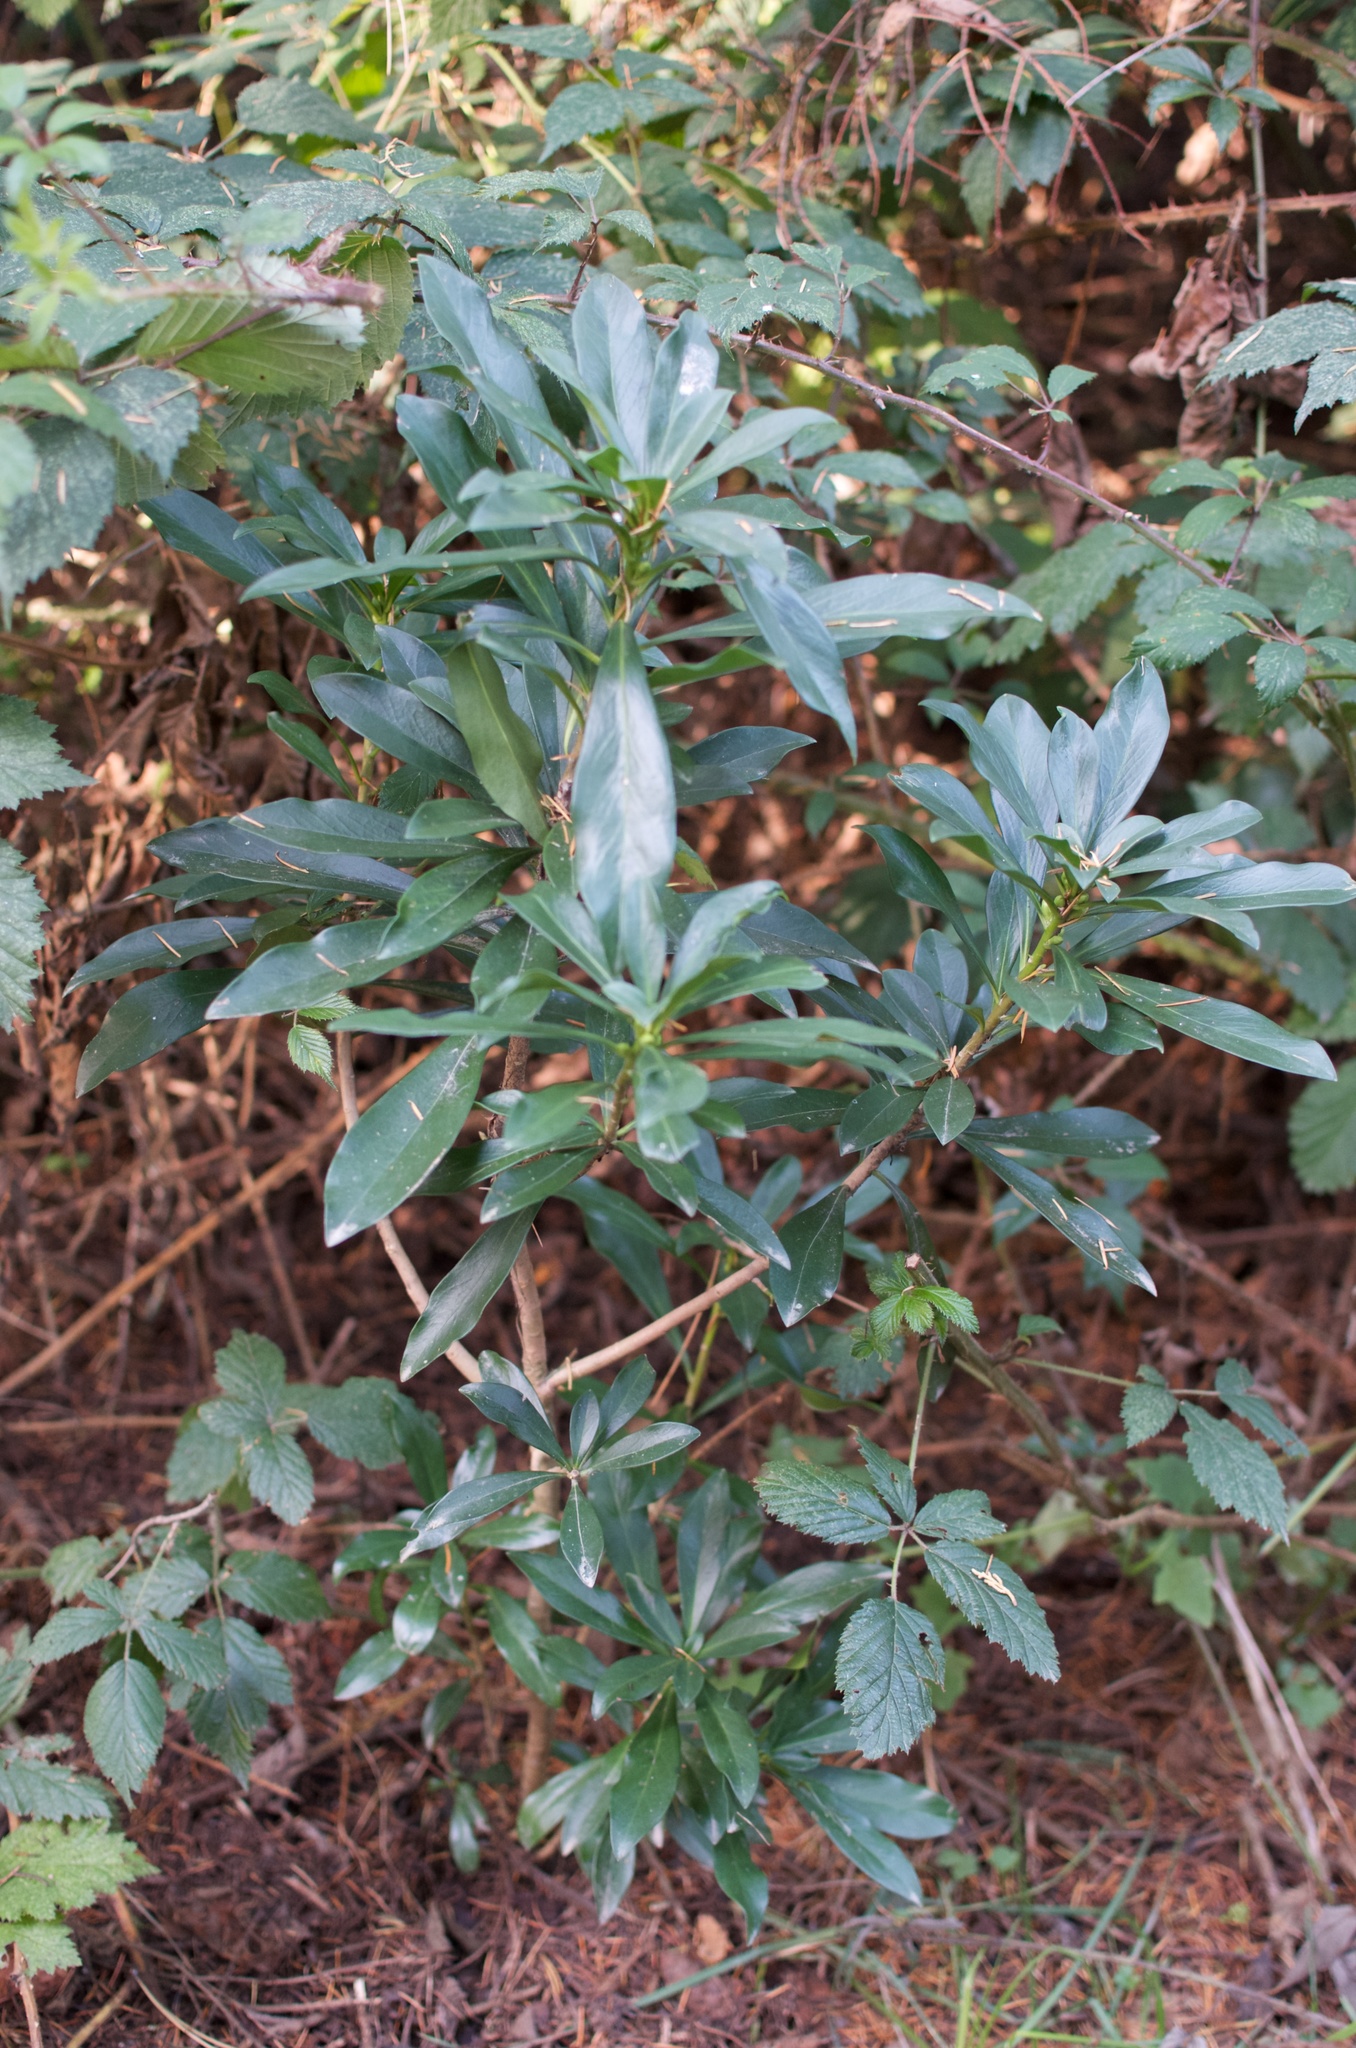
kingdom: Plantae
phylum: Tracheophyta
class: Magnoliopsida
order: Malvales
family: Thymelaeaceae
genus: Daphne
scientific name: Daphne laureola
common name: Spurge-laurel
